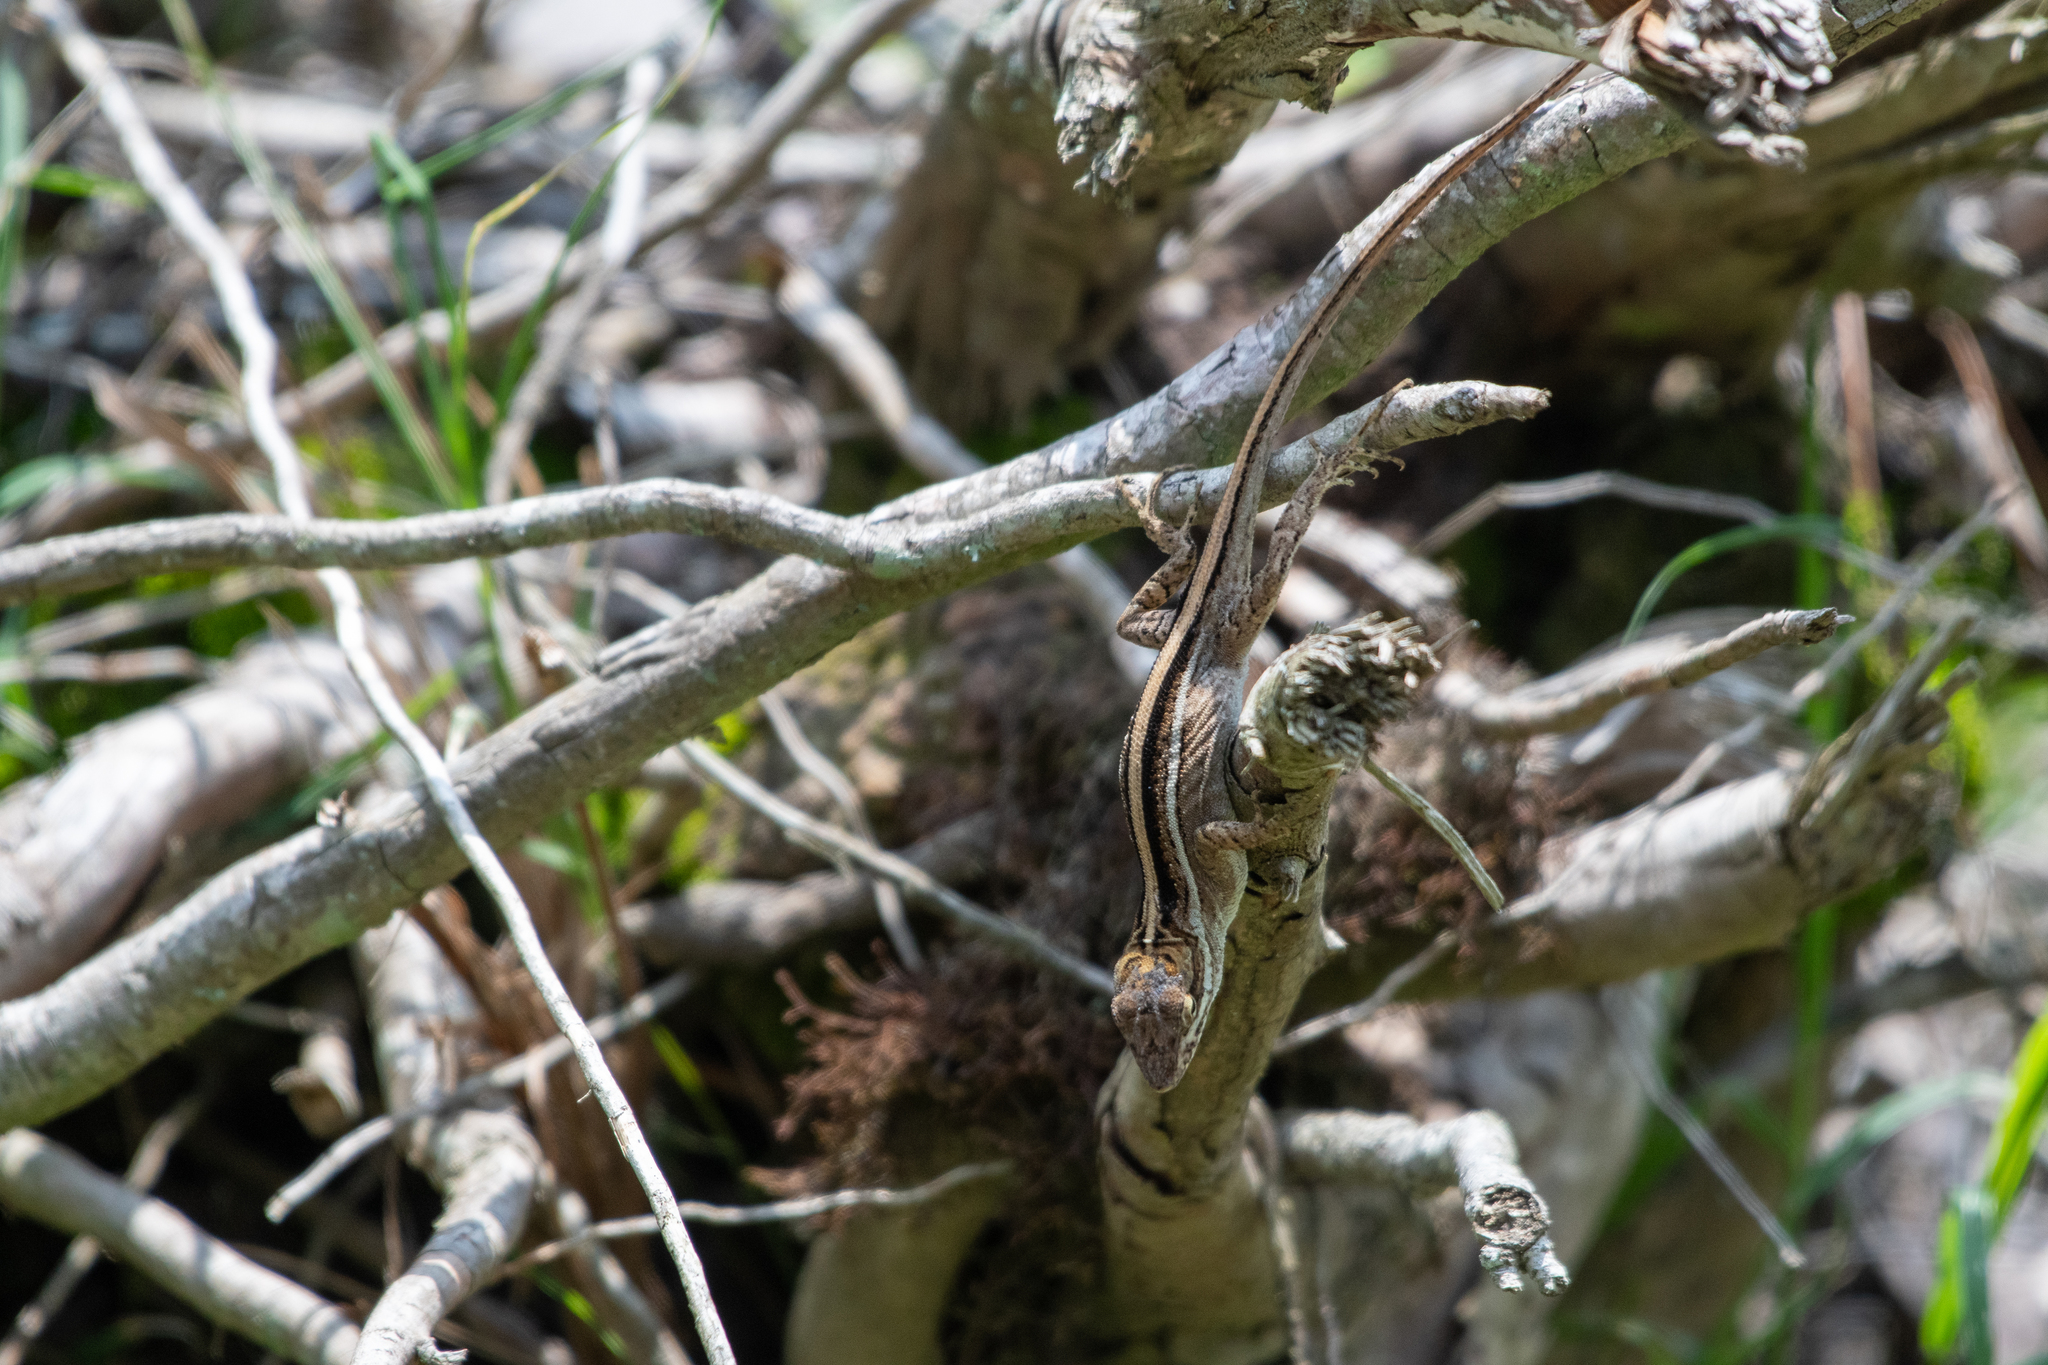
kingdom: Animalia
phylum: Chordata
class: Squamata
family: Dactyloidae
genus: Anolis
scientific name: Anolis caceresae
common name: Berta’s anole
